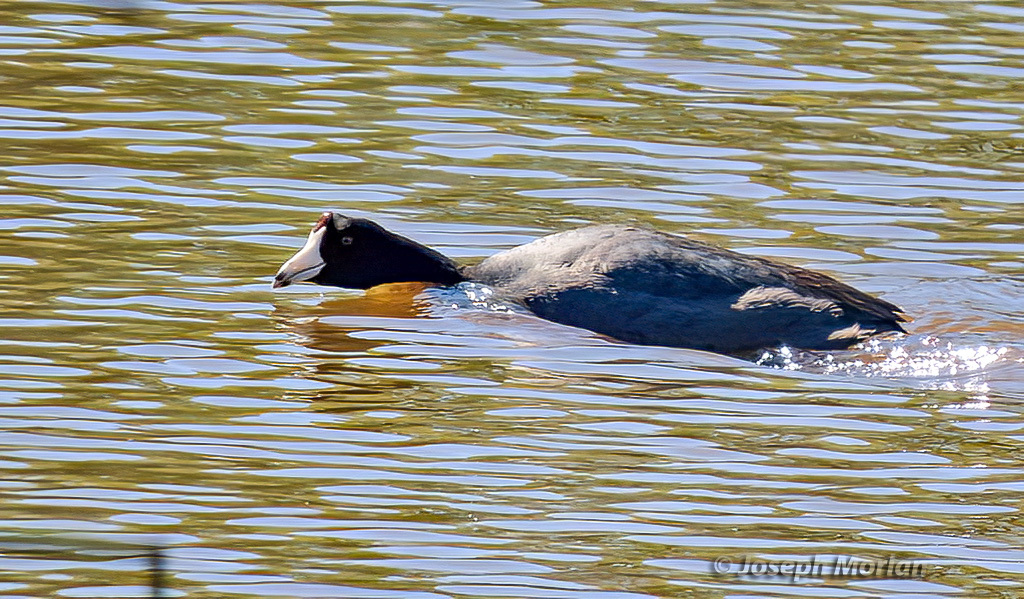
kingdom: Animalia
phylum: Chordata
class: Aves
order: Gruiformes
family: Rallidae
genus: Fulica
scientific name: Fulica americana
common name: American coot
